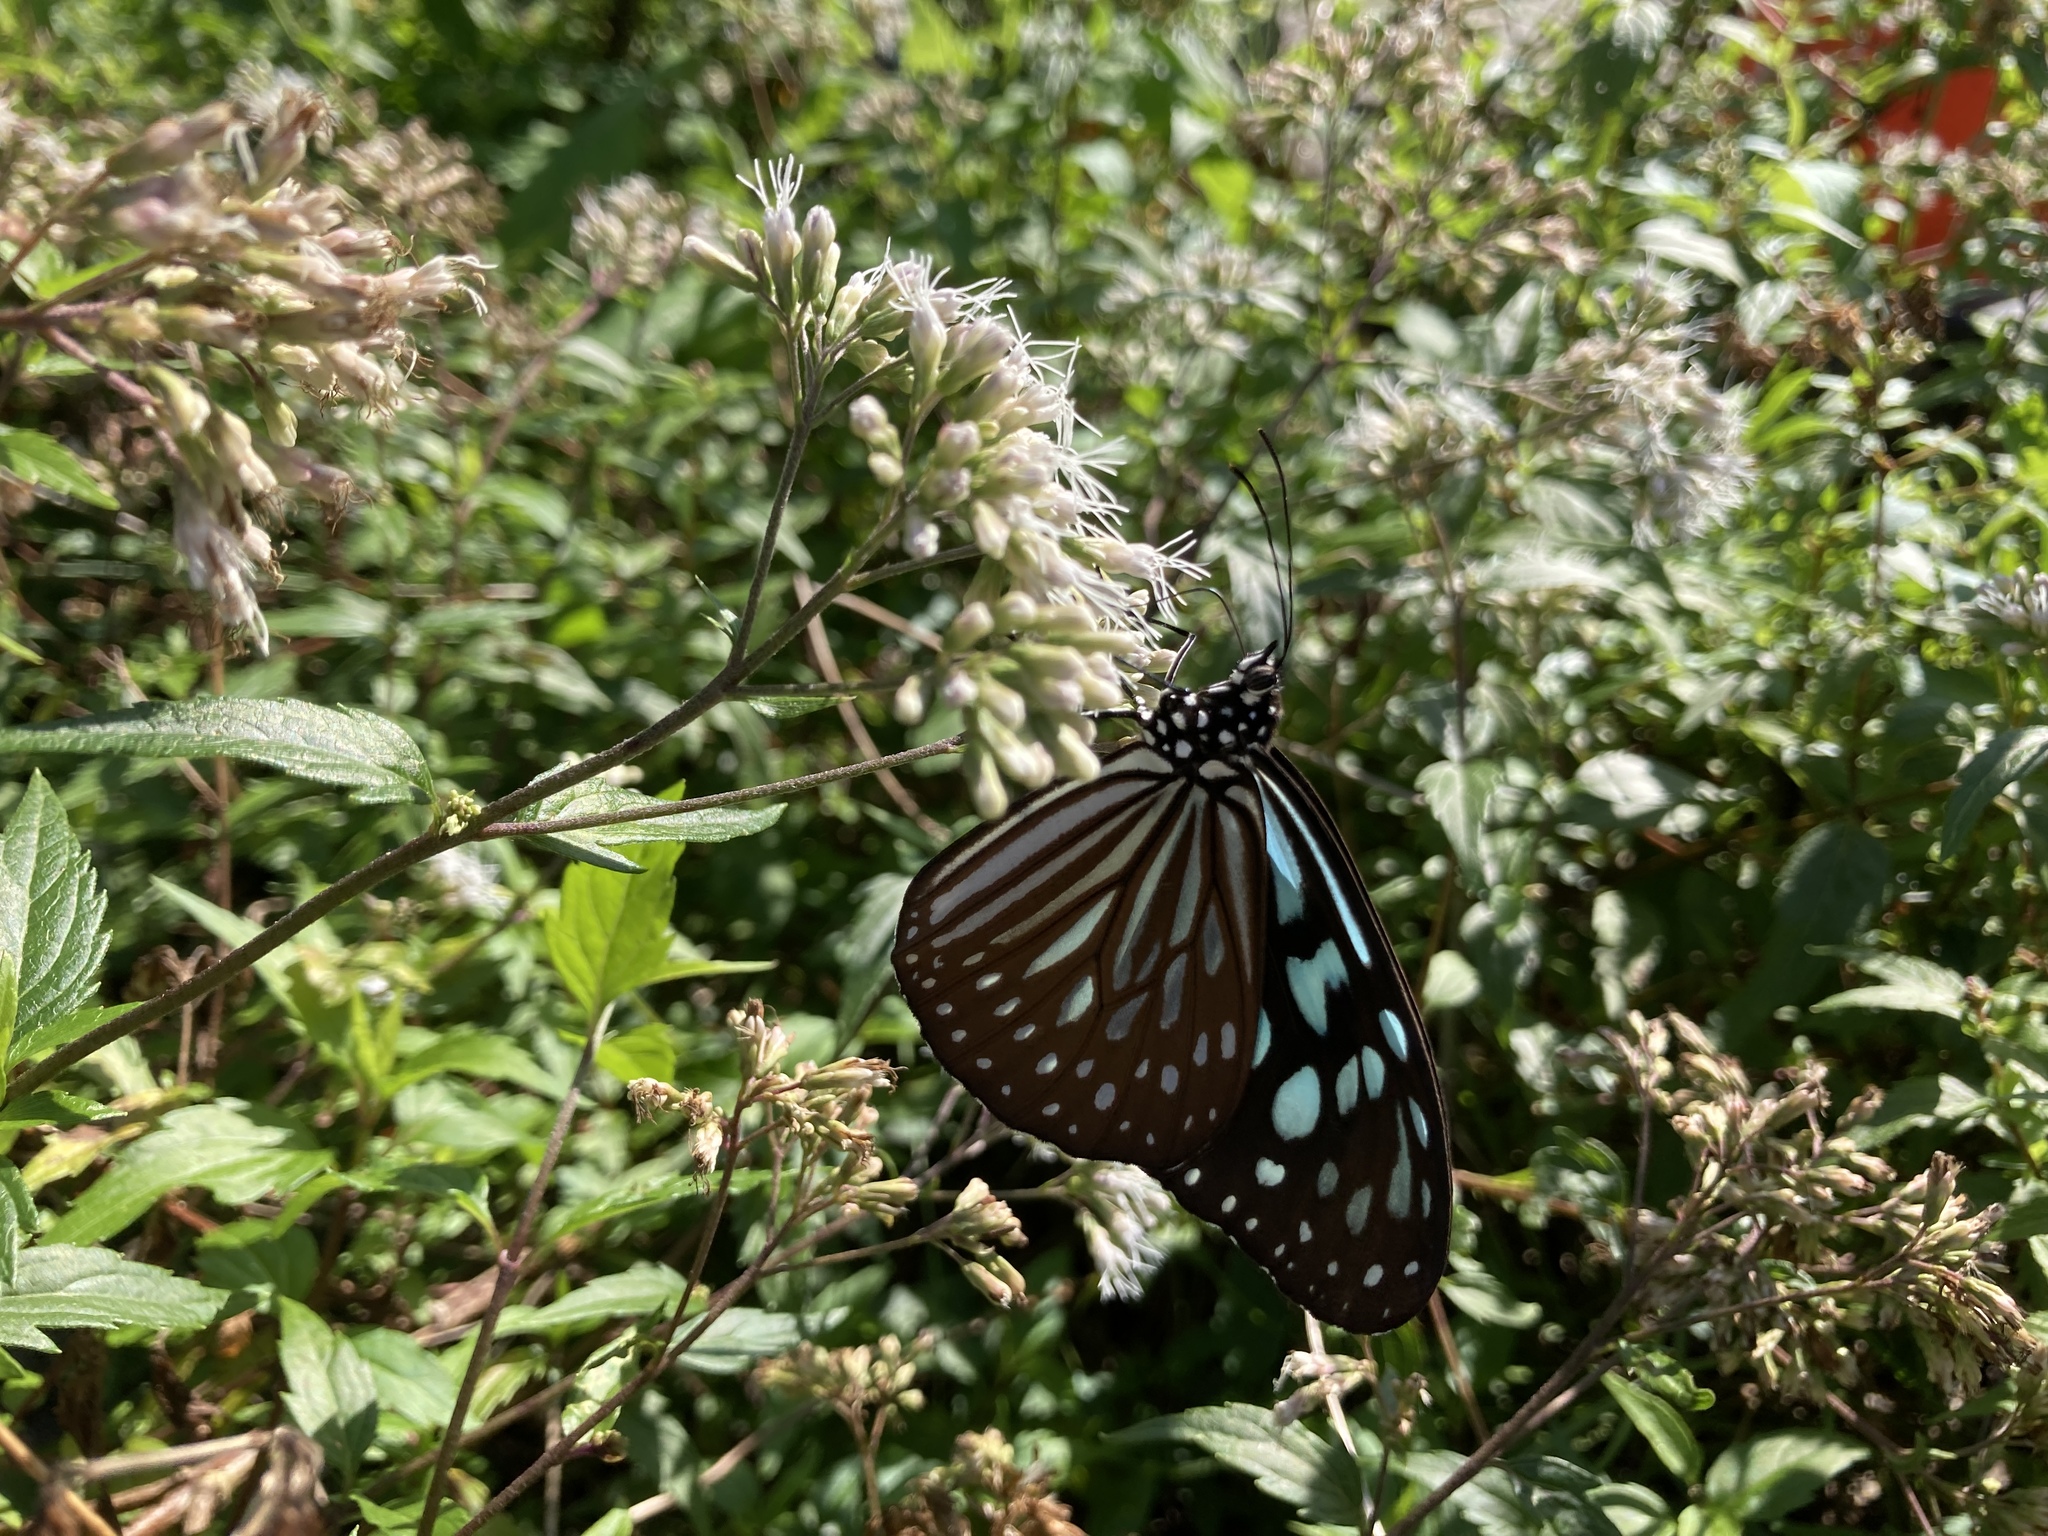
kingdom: Animalia
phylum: Arthropoda
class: Insecta
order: Lepidoptera
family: Nymphalidae
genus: Ideopsis
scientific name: Ideopsis similis
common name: Ceylon blue glassy tiger
